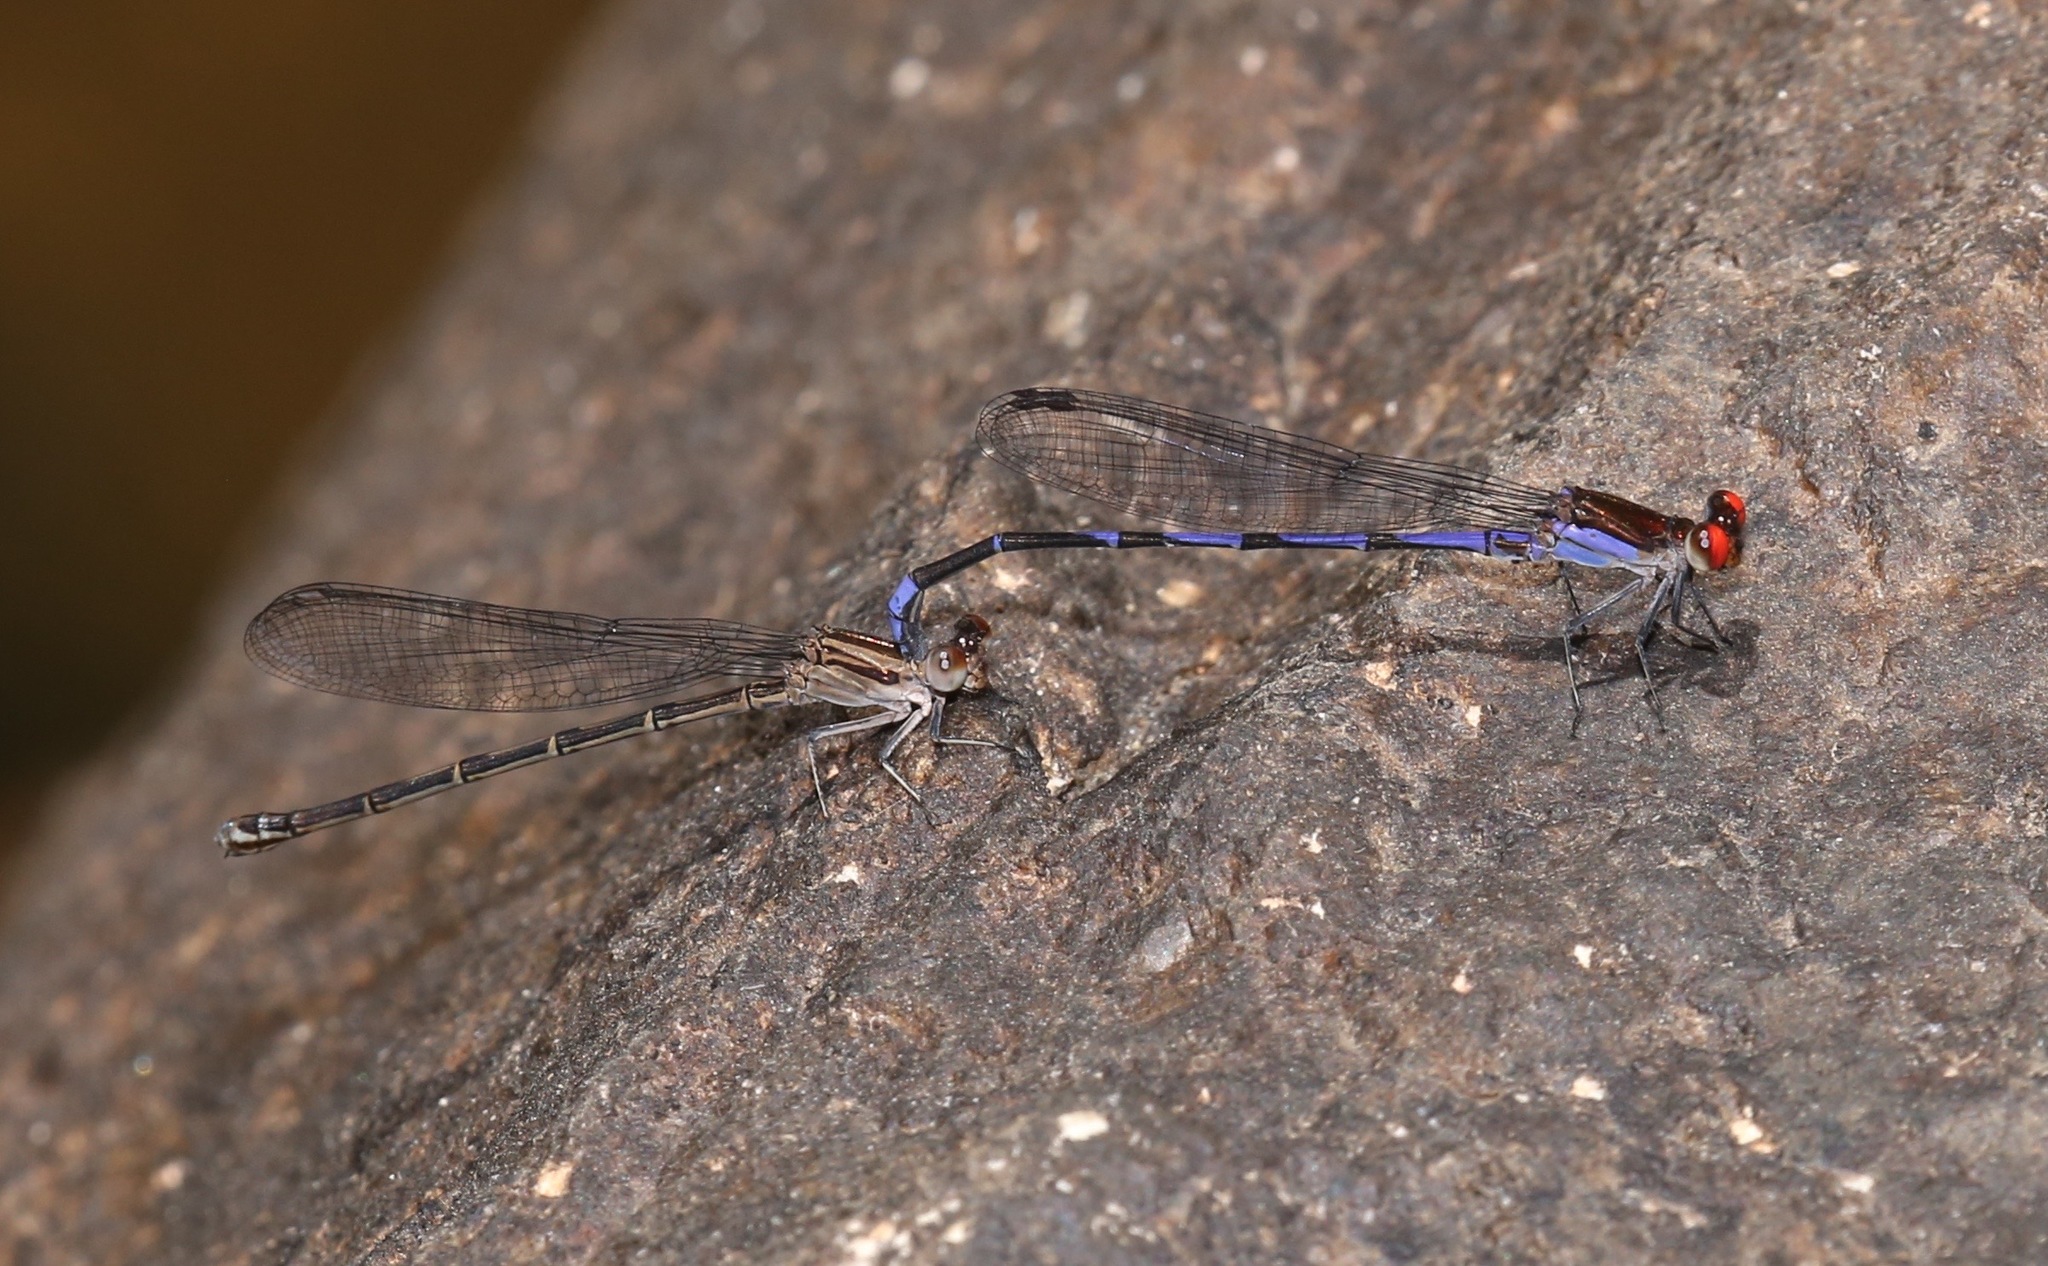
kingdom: Animalia
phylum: Arthropoda
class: Insecta
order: Odonata
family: Coenagrionidae
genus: Argia
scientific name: Argia oenea
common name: Fiery-eyed dancer
